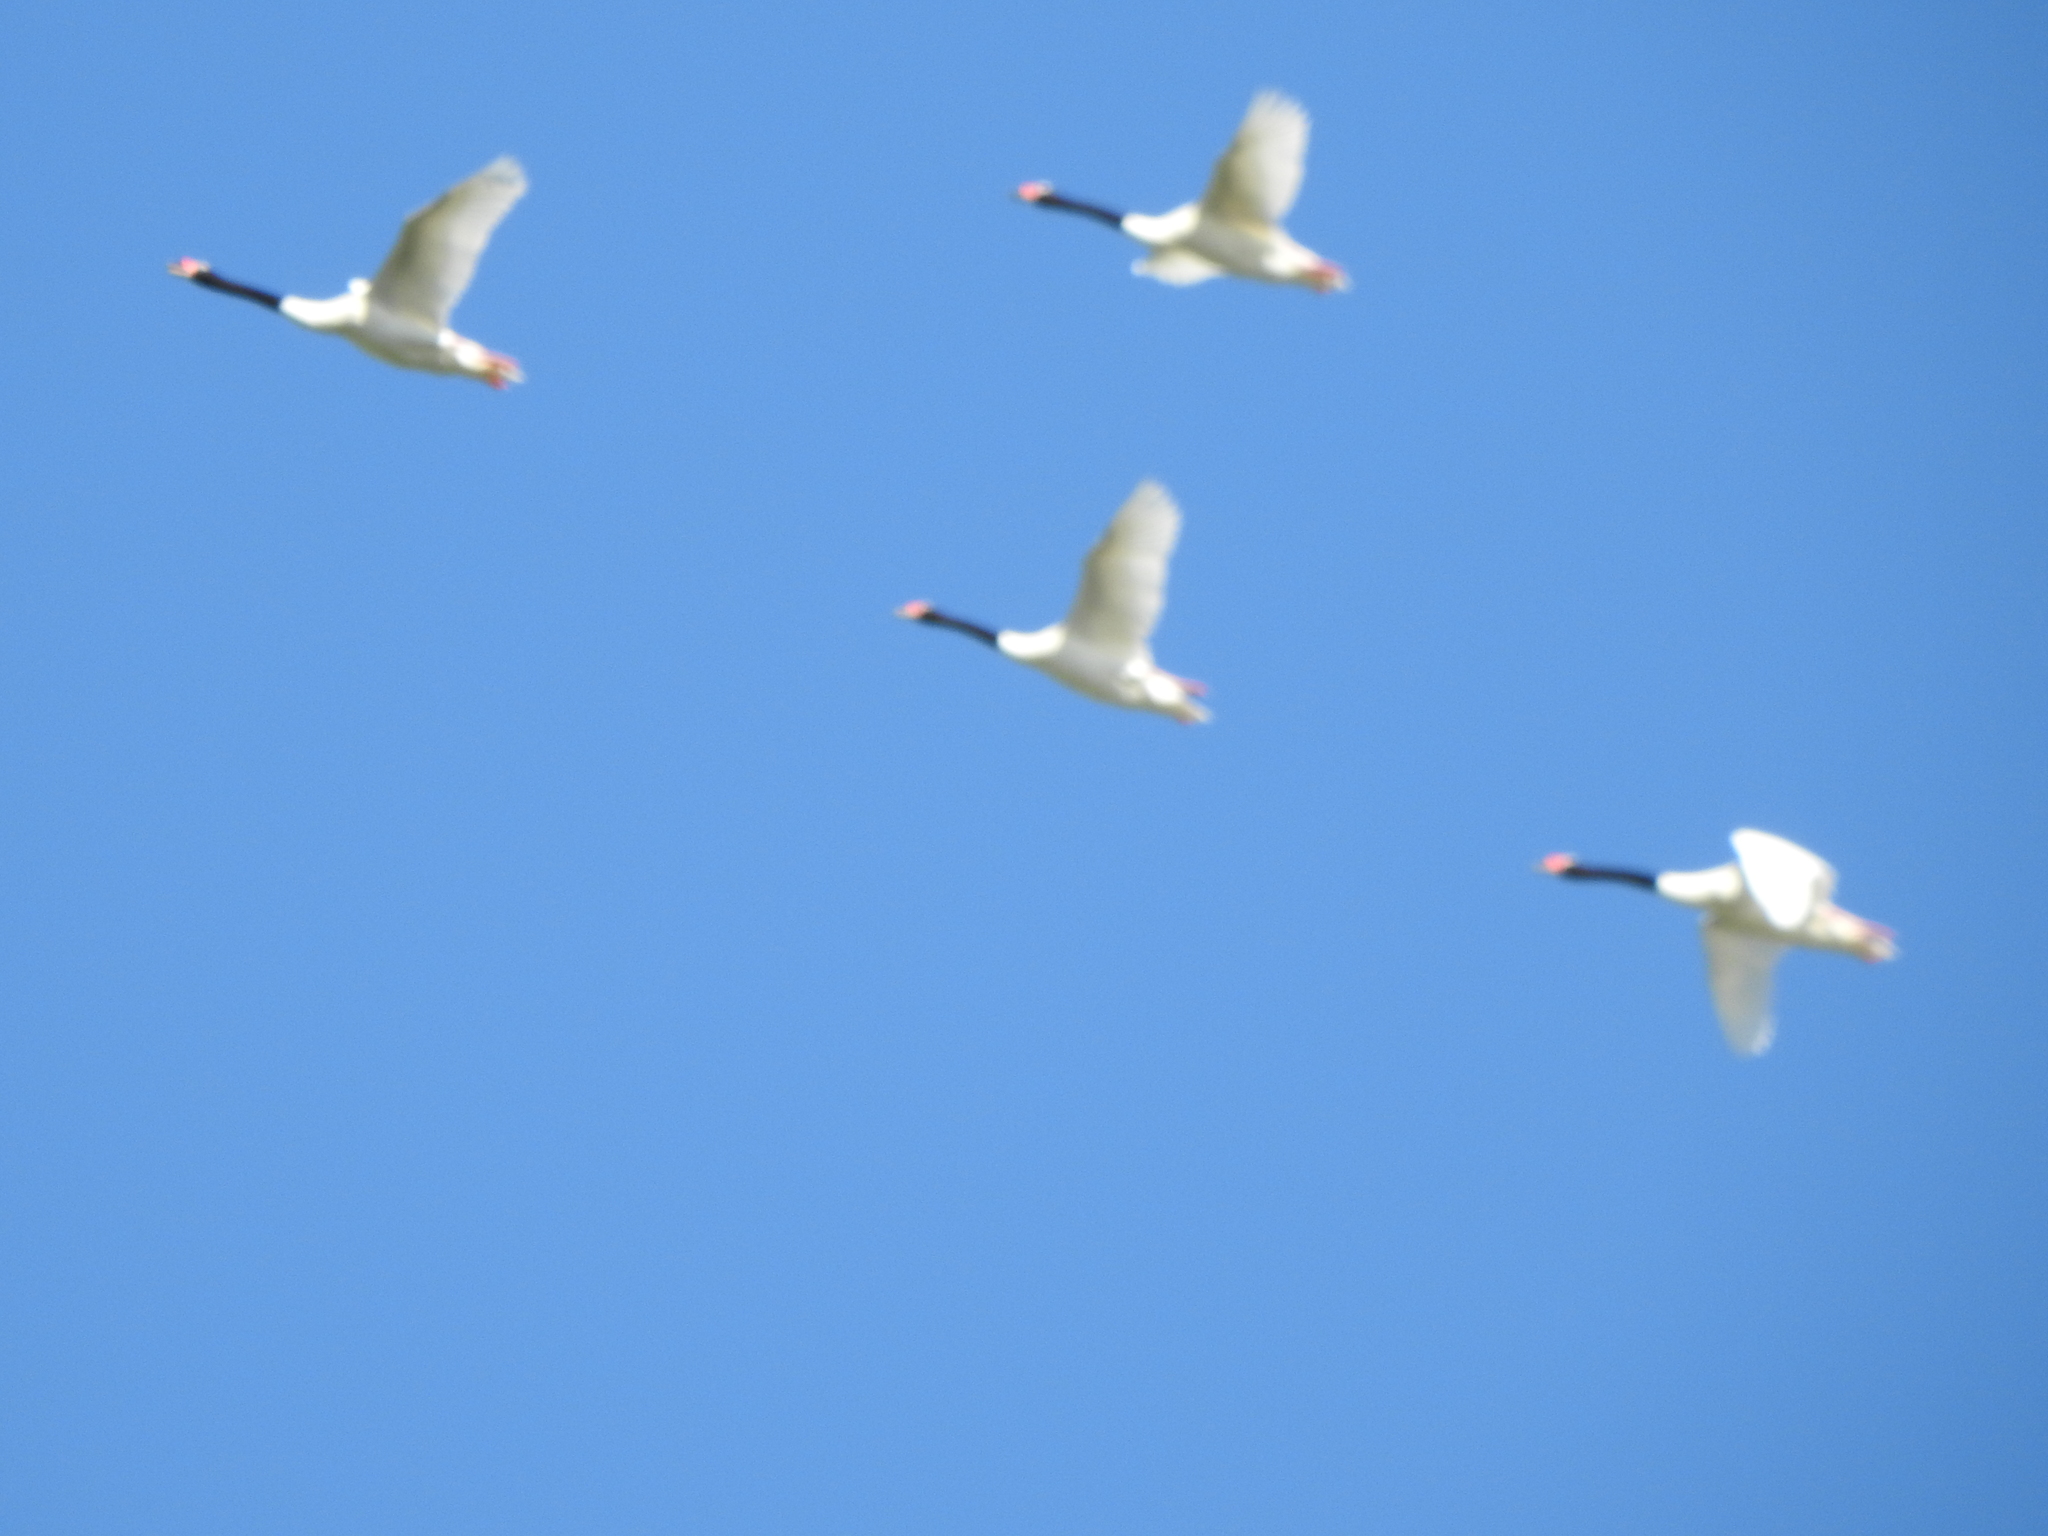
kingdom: Animalia
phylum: Chordata
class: Aves
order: Anseriformes
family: Anatidae
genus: Cygnus
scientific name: Cygnus melancoryphus
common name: Black-necked swan
